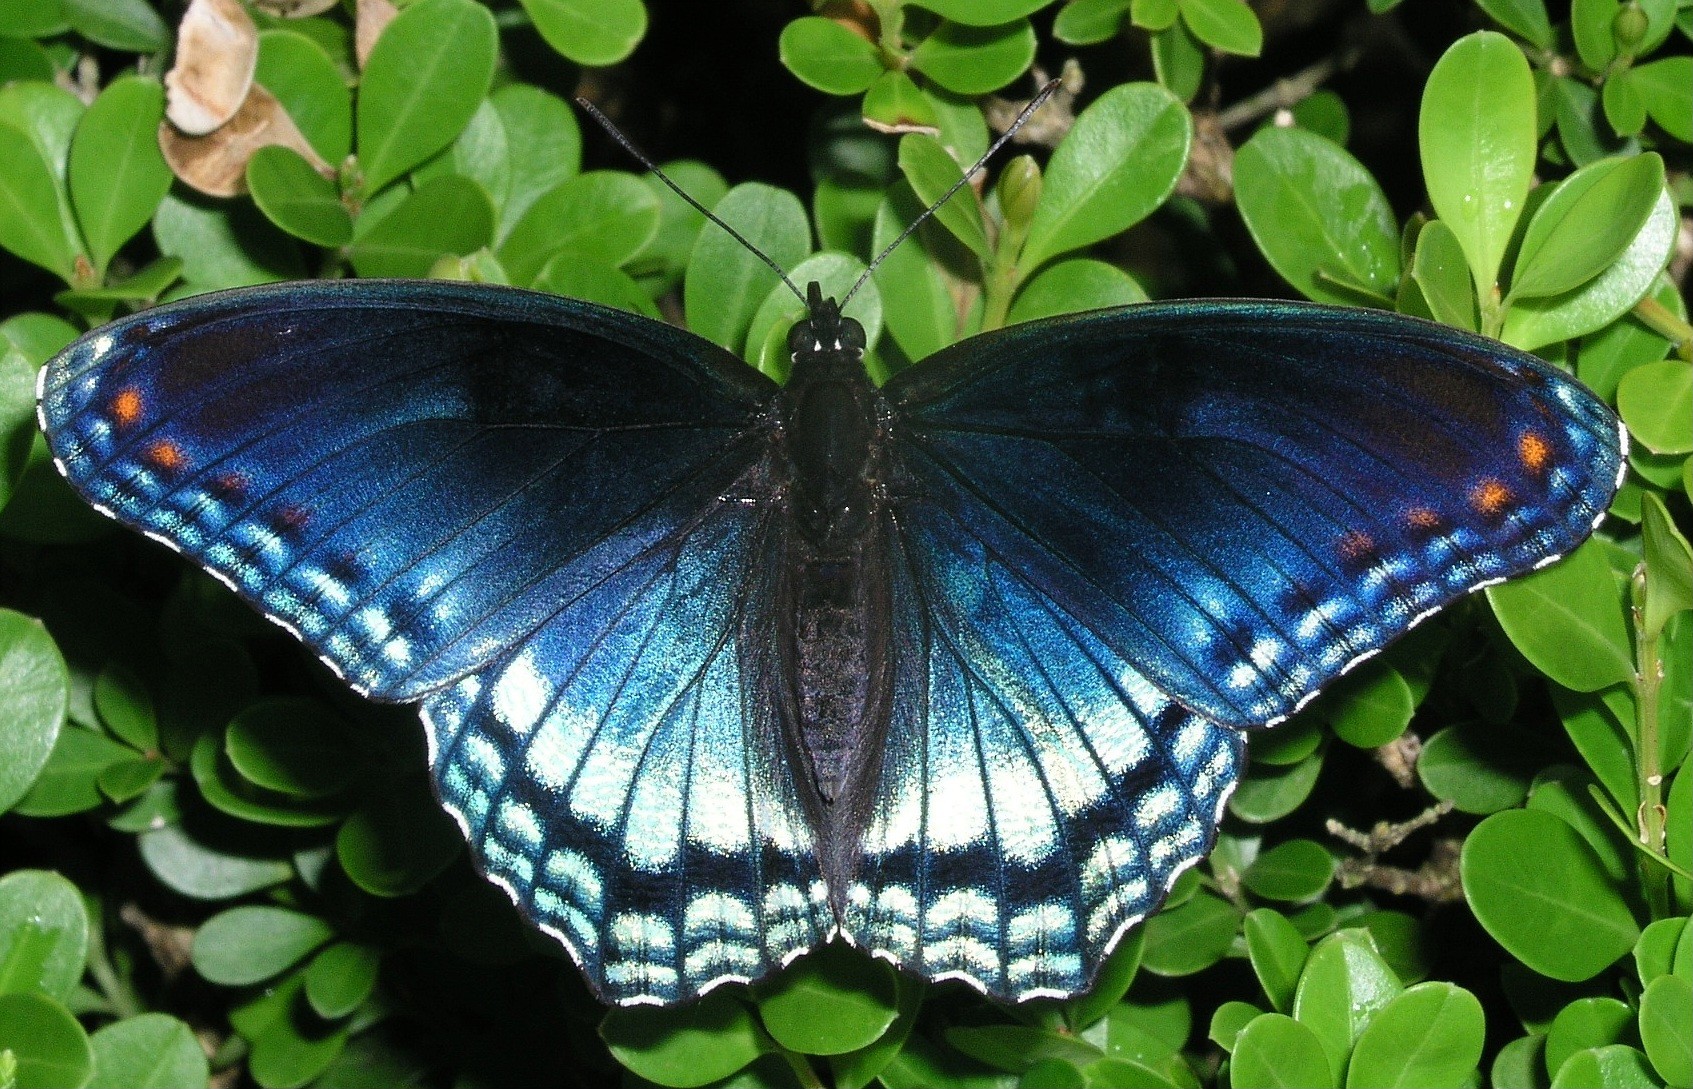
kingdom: Animalia
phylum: Arthropoda
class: Insecta
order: Lepidoptera
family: Nymphalidae
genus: Limenitis
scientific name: Limenitis astyanax
